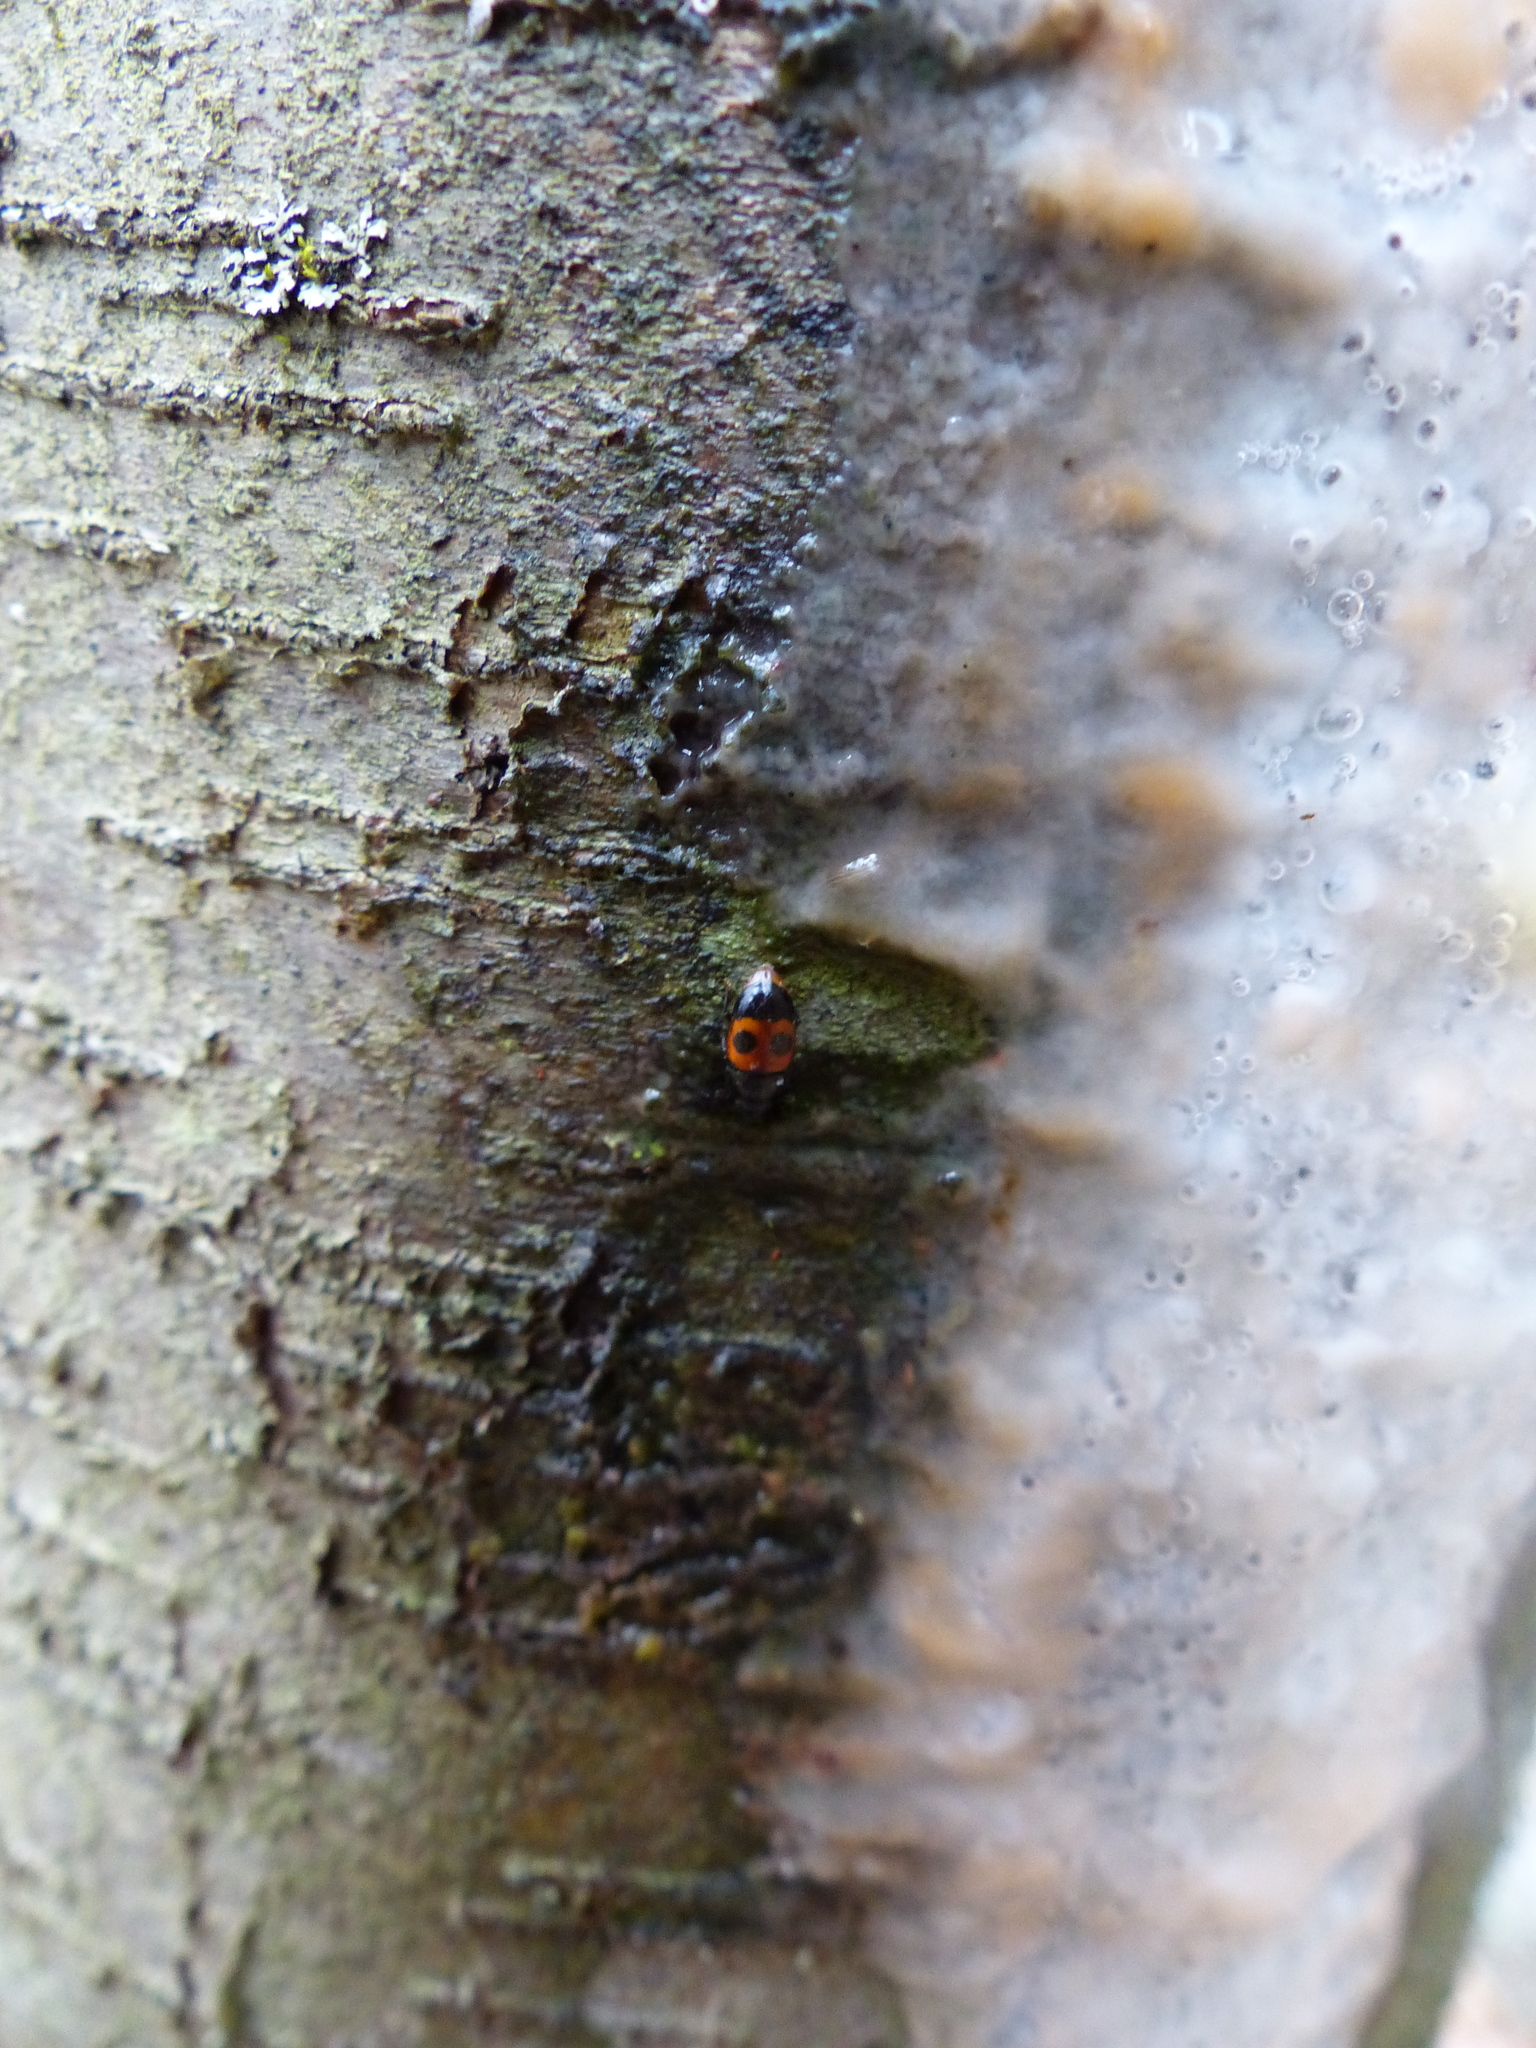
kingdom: Animalia
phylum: Arthropoda
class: Insecta
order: Coleoptera
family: Nitidulidae
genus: Glischrochilus
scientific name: Glischrochilus sanguinolentus
